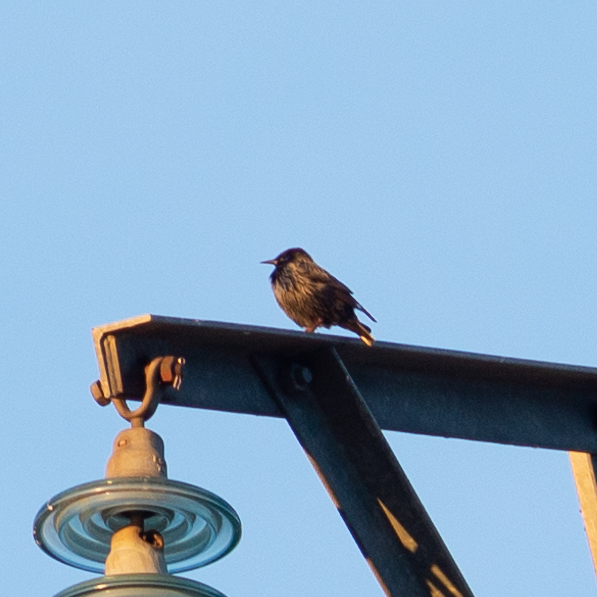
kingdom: Animalia
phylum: Chordata
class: Aves
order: Passeriformes
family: Sturnidae
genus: Sturnus
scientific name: Sturnus unicolor
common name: Spotless starling
